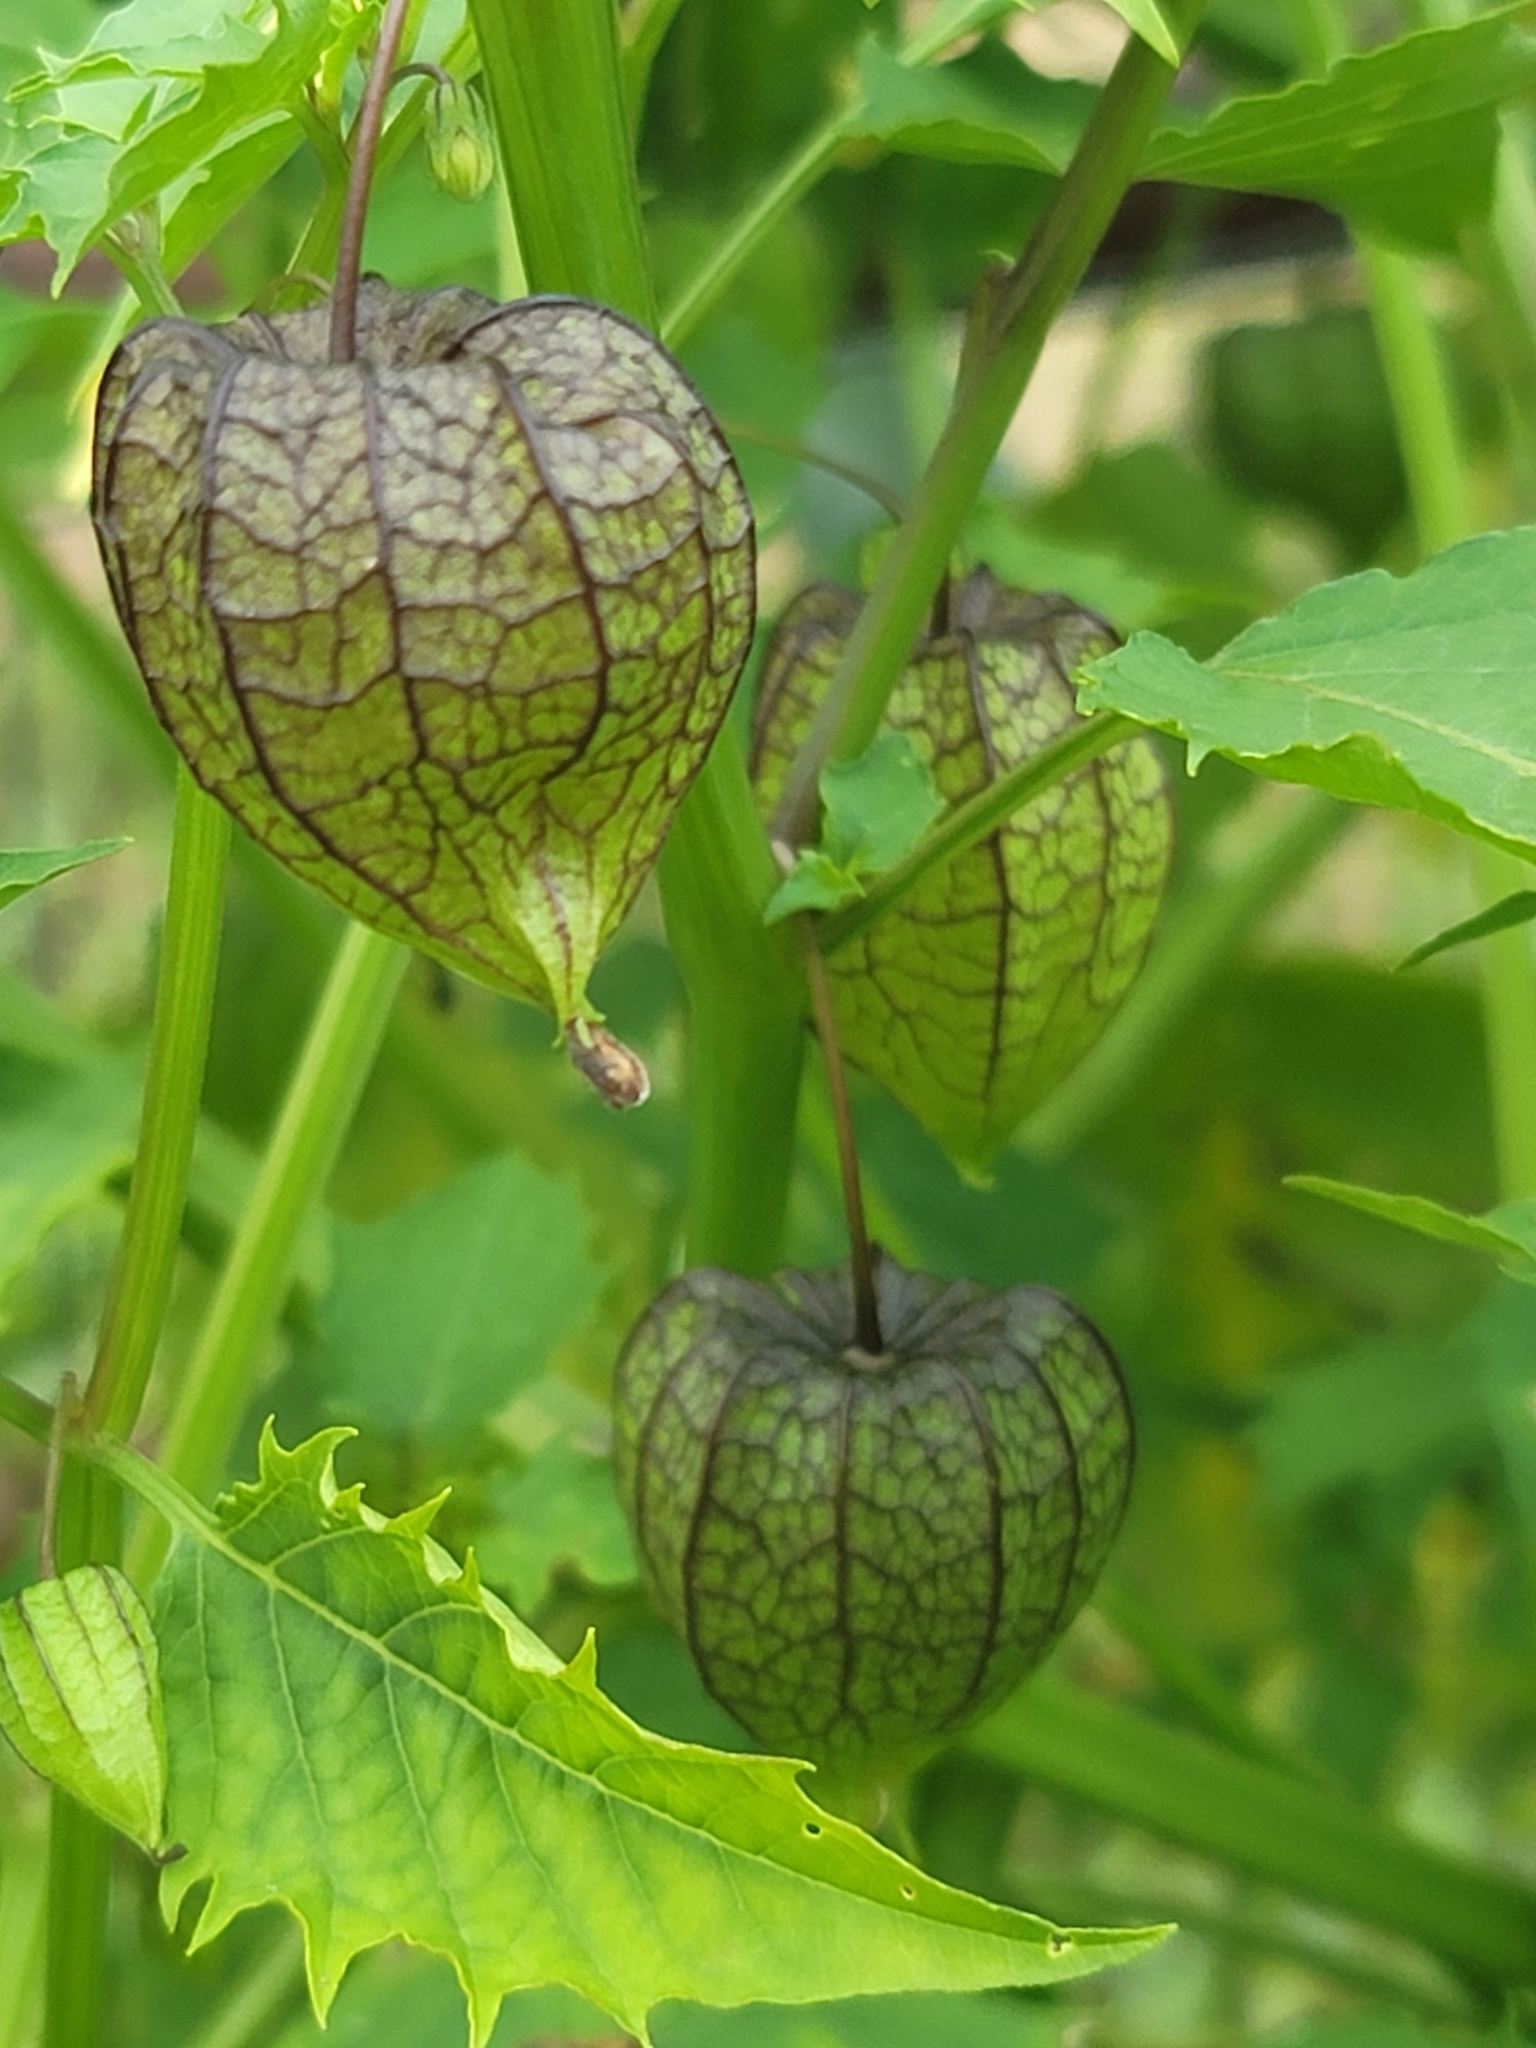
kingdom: Plantae
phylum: Tracheophyta
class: Magnoliopsida
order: Solanales
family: Solanaceae
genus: Physalis
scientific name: Physalis angulata
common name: Angular winter-cherry
